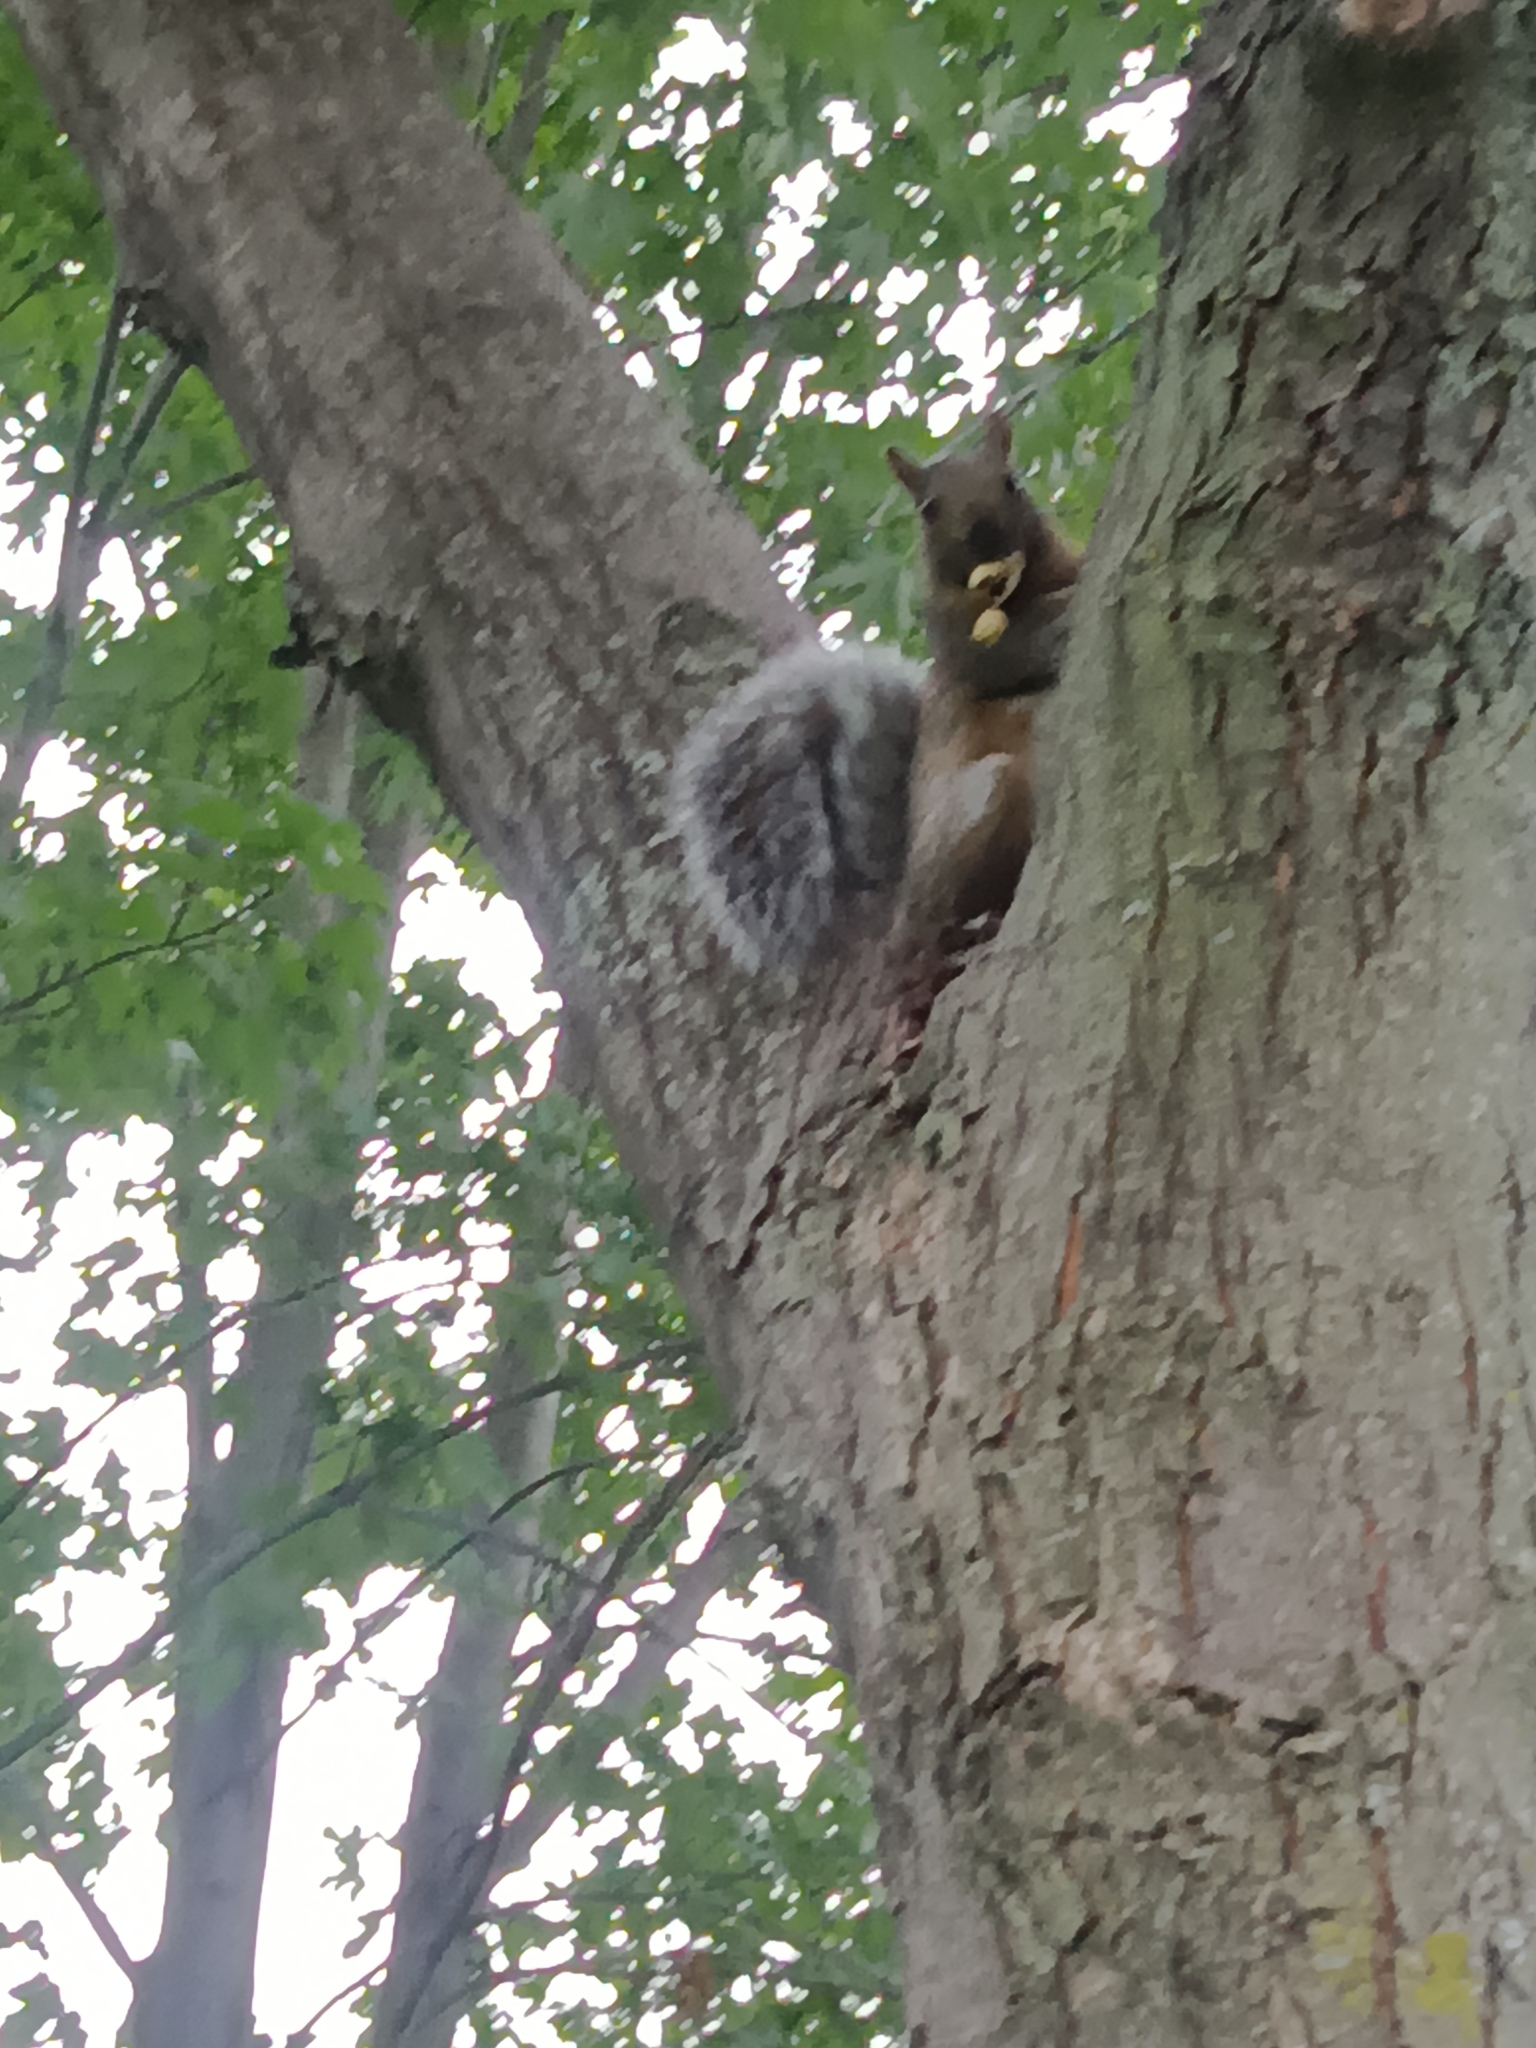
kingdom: Animalia
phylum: Chordata
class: Mammalia
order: Rodentia
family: Sciuridae
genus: Sciurus
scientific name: Sciurus carolinensis
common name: Eastern gray squirrel
